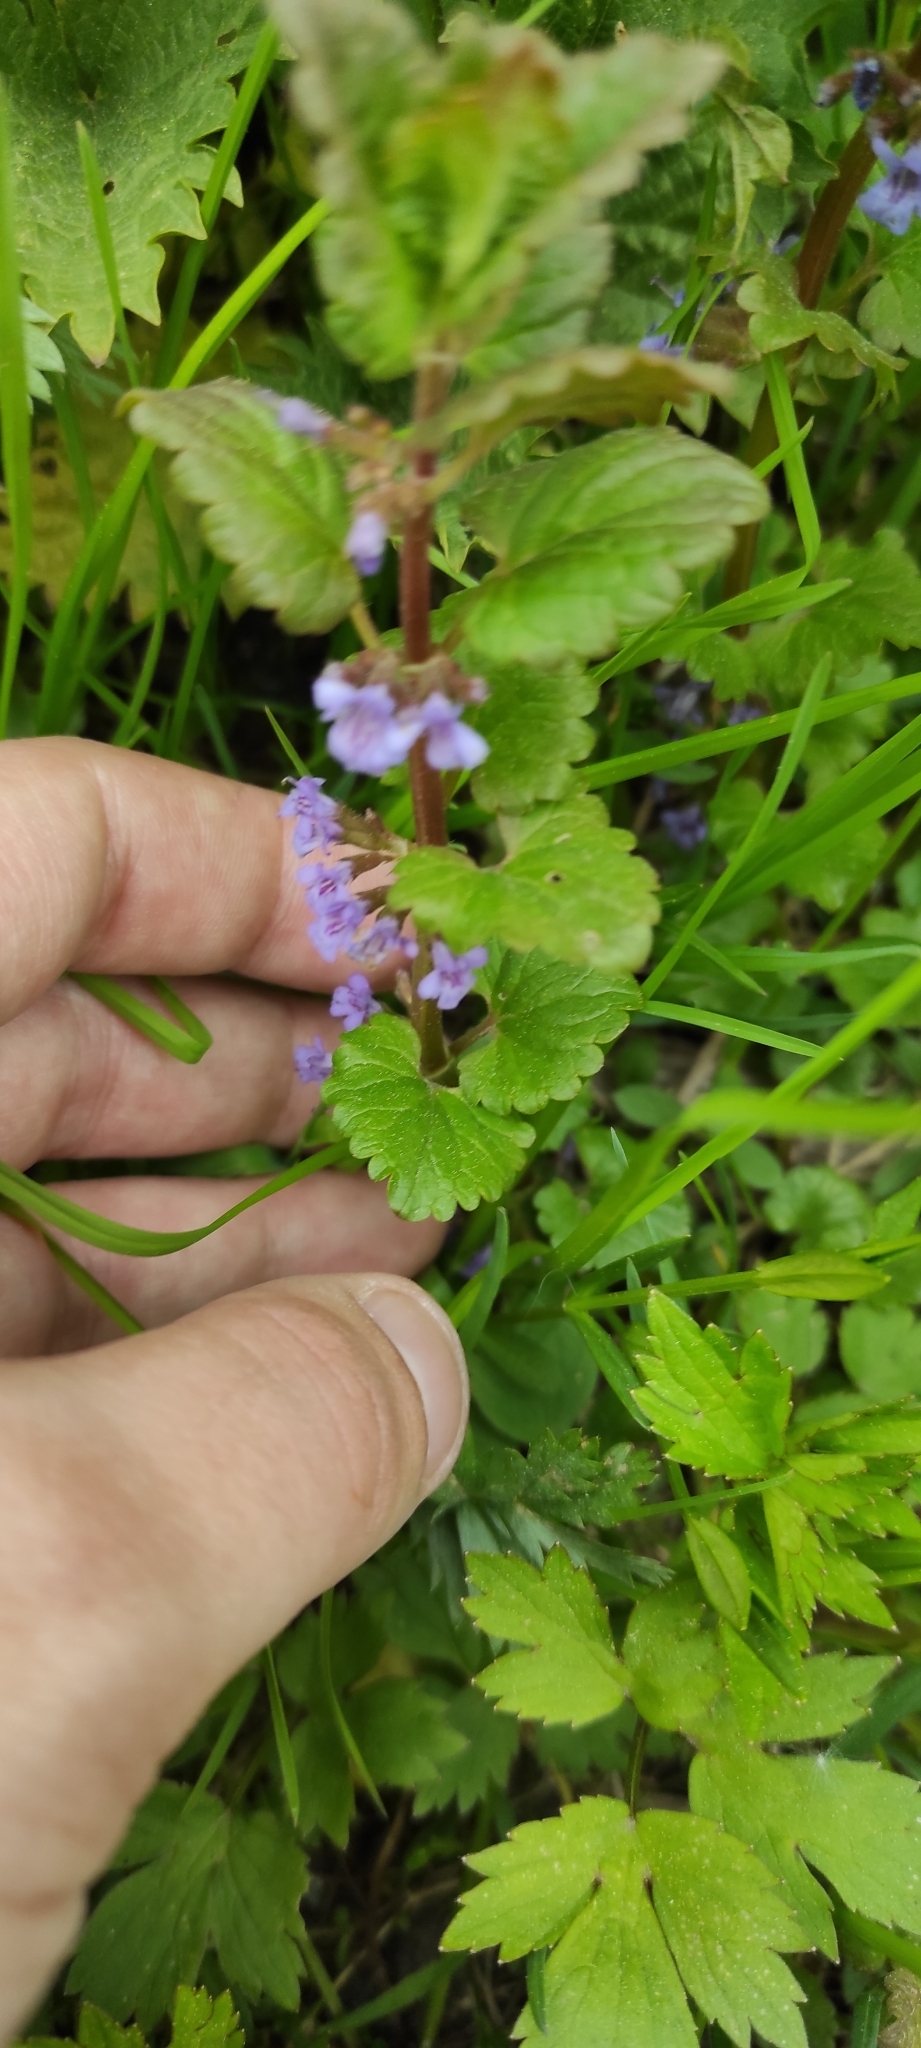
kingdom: Plantae
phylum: Tracheophyta
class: Magnoliopsida
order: Lamiales
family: Lamiaceae
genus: Glechoma
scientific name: Glechoma hederacea
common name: Ground ivy
